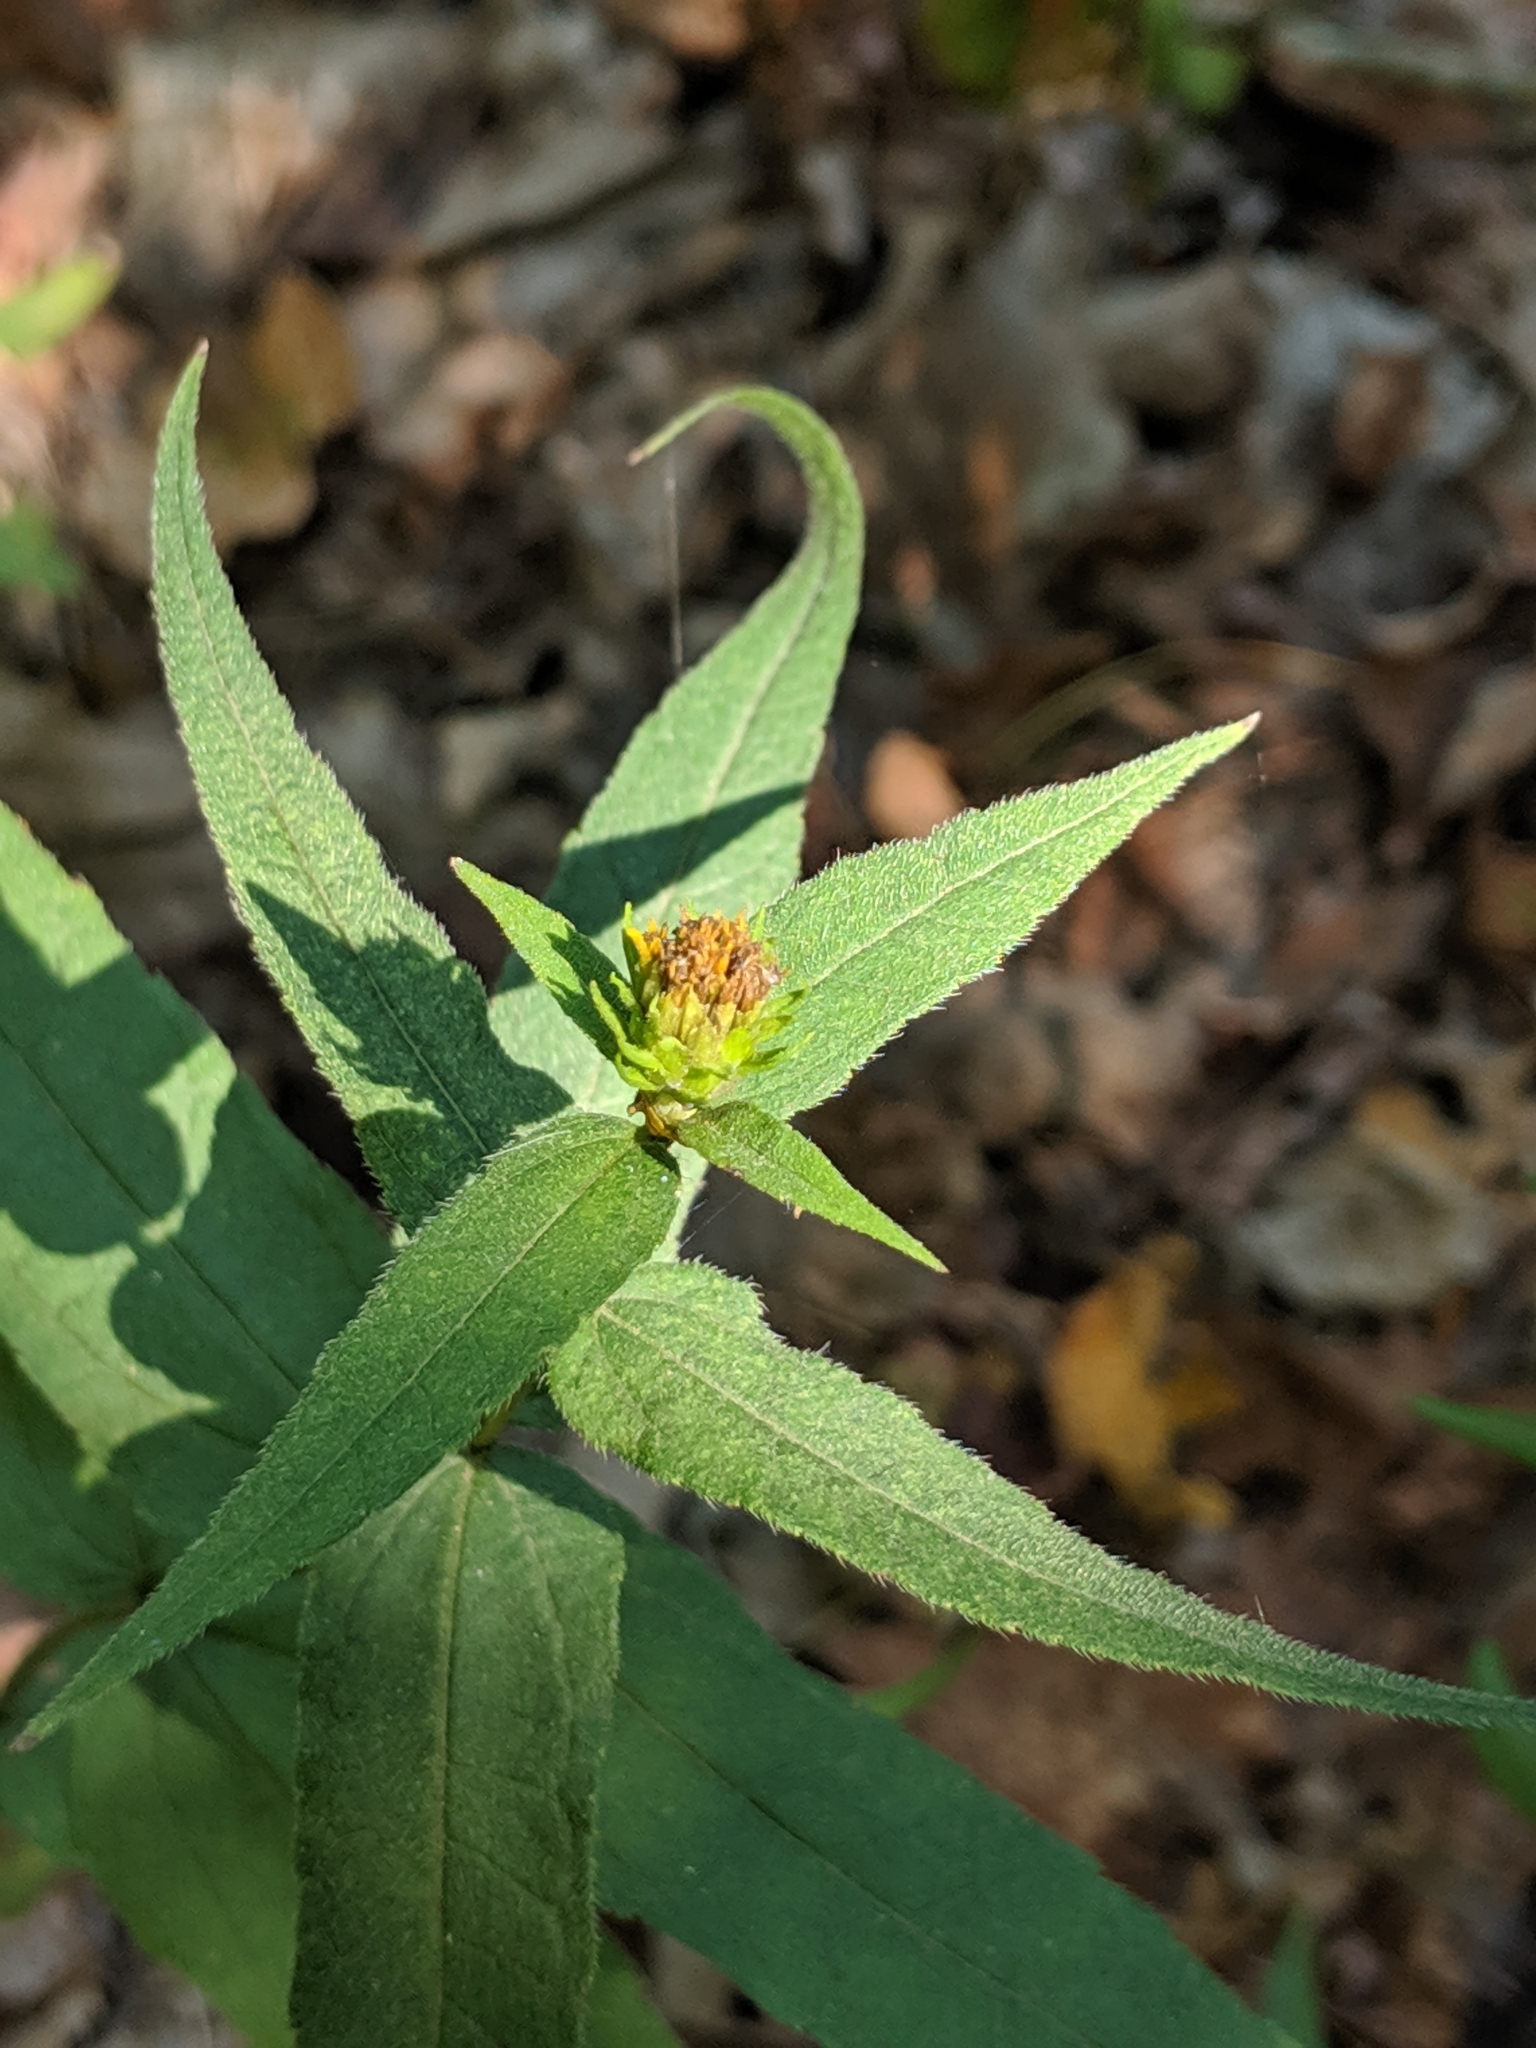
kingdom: Plantae
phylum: Tracheophyta
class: Magnoliopsida
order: Asterales
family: Asteraceae
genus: Helianthus
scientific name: Helianthus divaricatus
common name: Divergent sunflower
